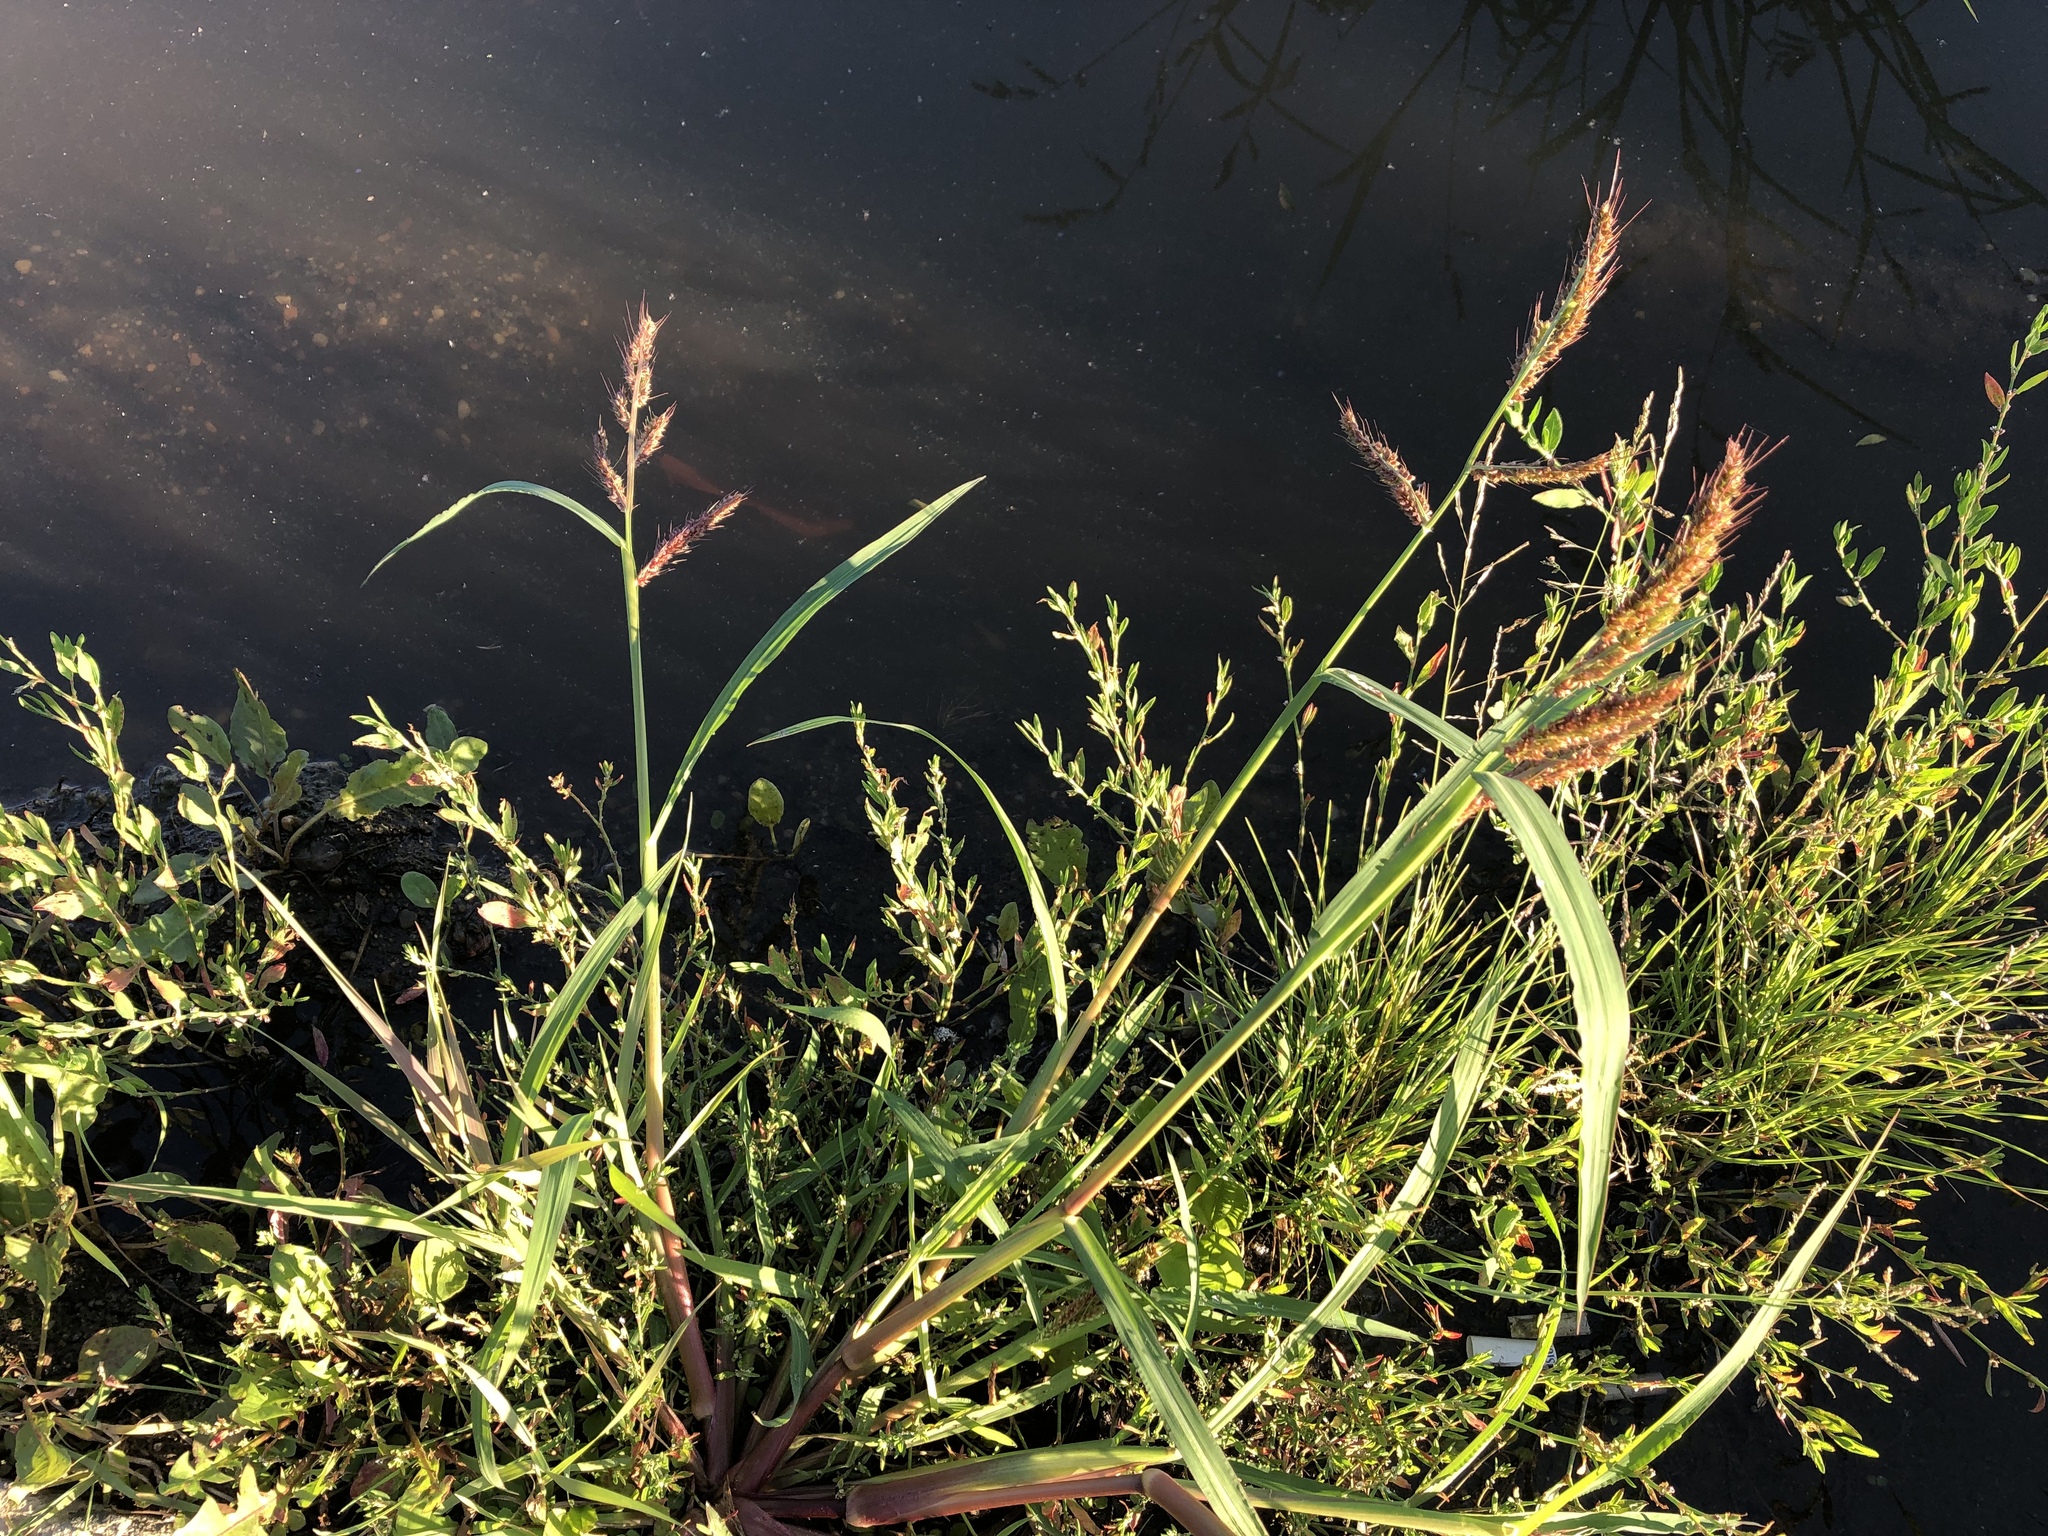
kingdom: Plantae
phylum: Tracheophyta
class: Liliopsida
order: Poales
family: Poaceae
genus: Echinochloa
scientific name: Echinochloa crus-galli
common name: Cockspur
